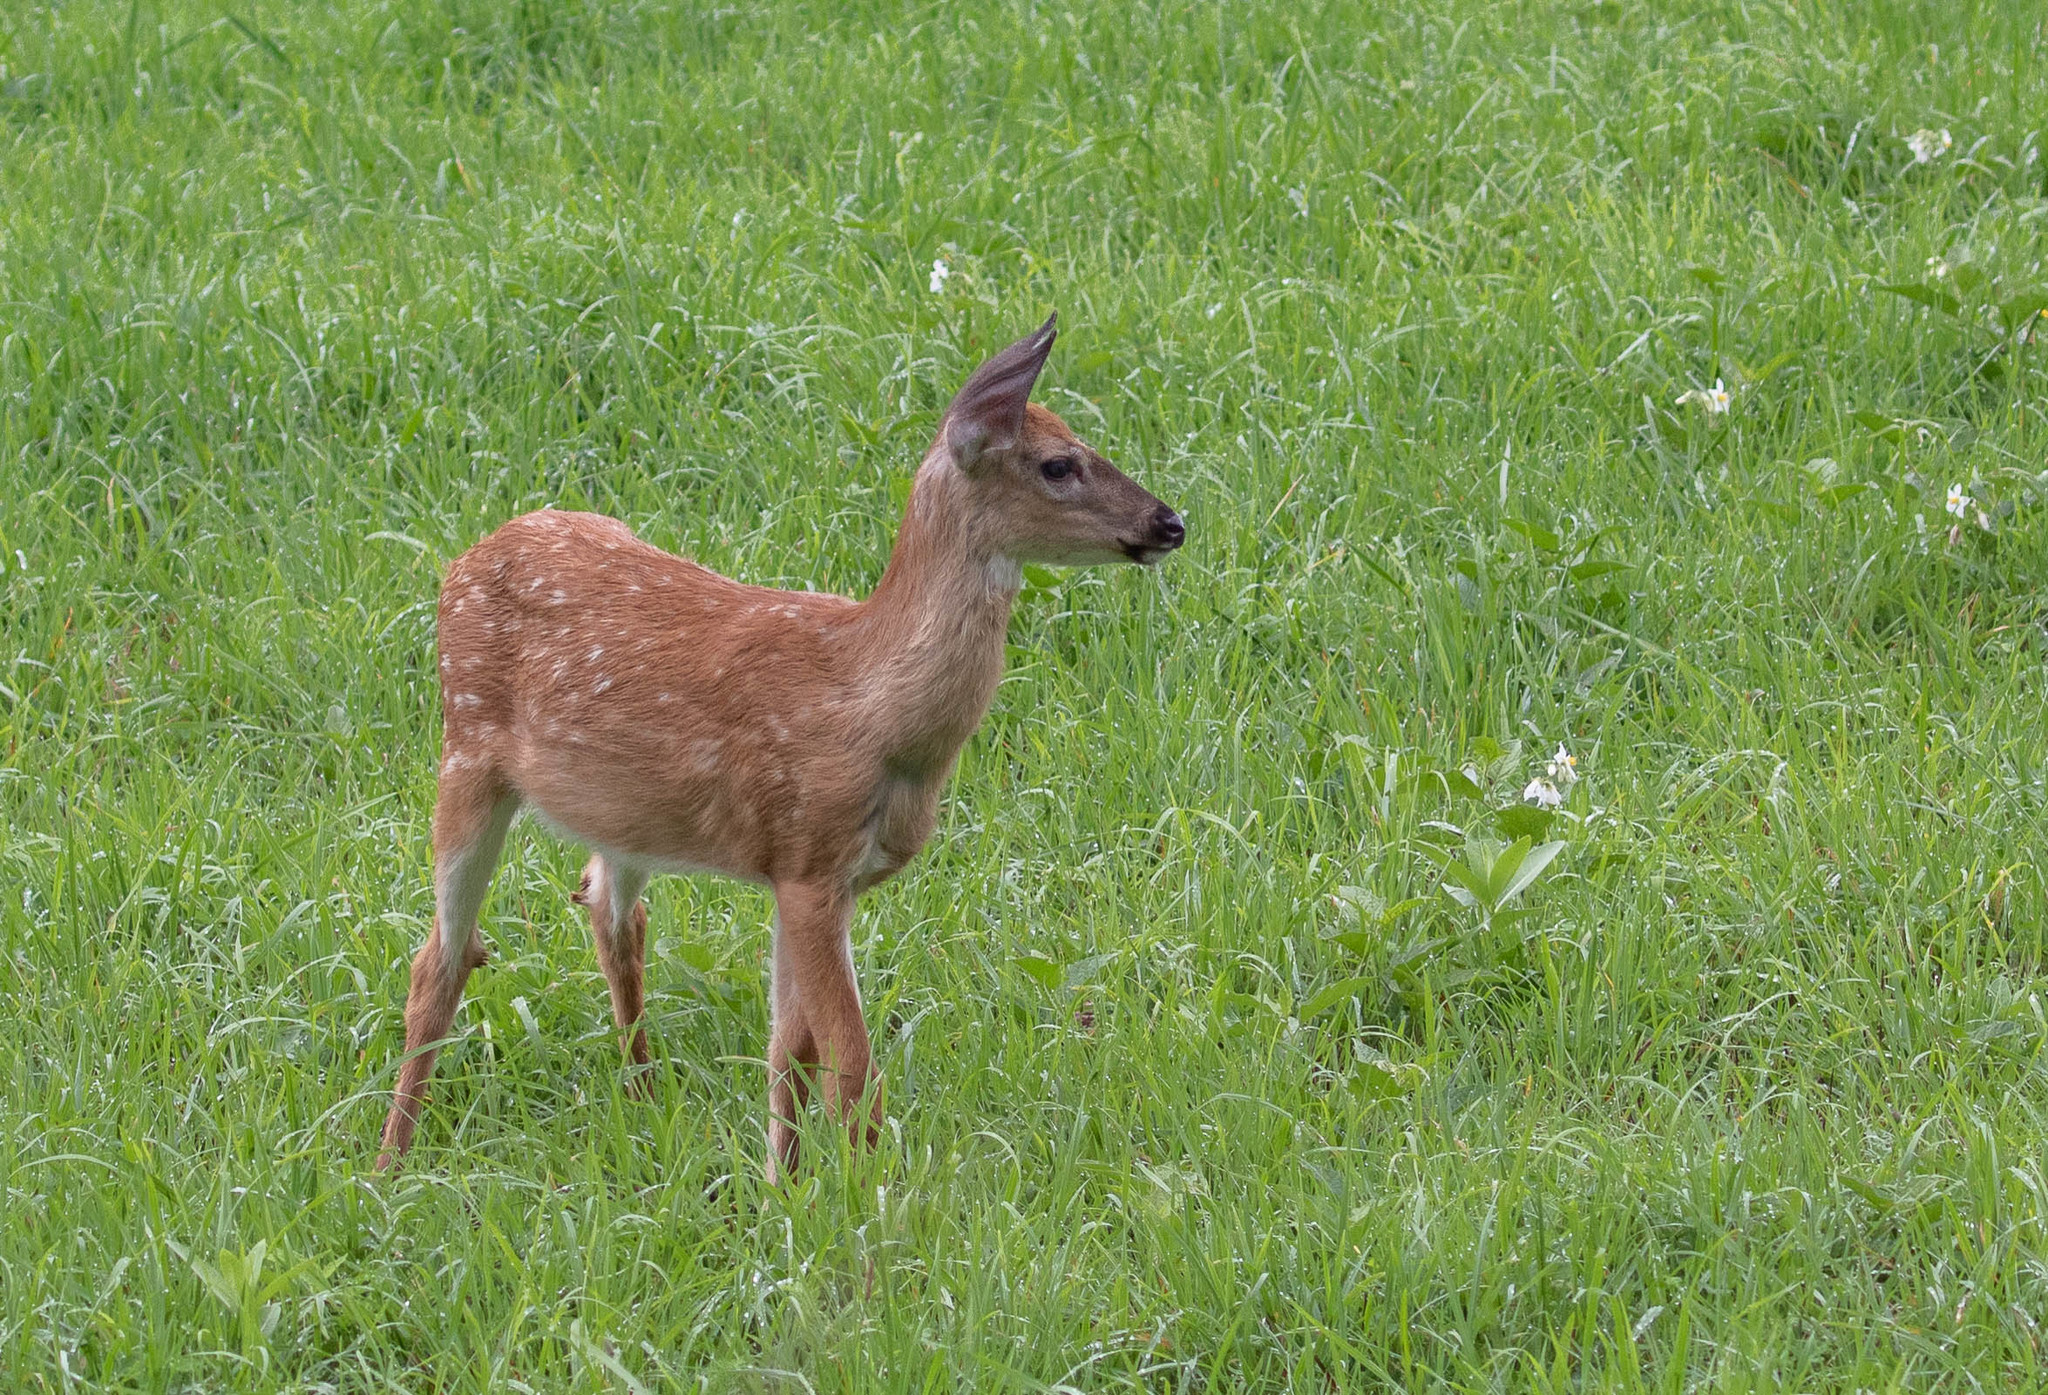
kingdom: Animalia
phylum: Chordata
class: Mammalia
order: Artiodactyla
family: Cervidae
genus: Odocoileus
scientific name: Odocoileus virginianus
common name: White-tailed deer
